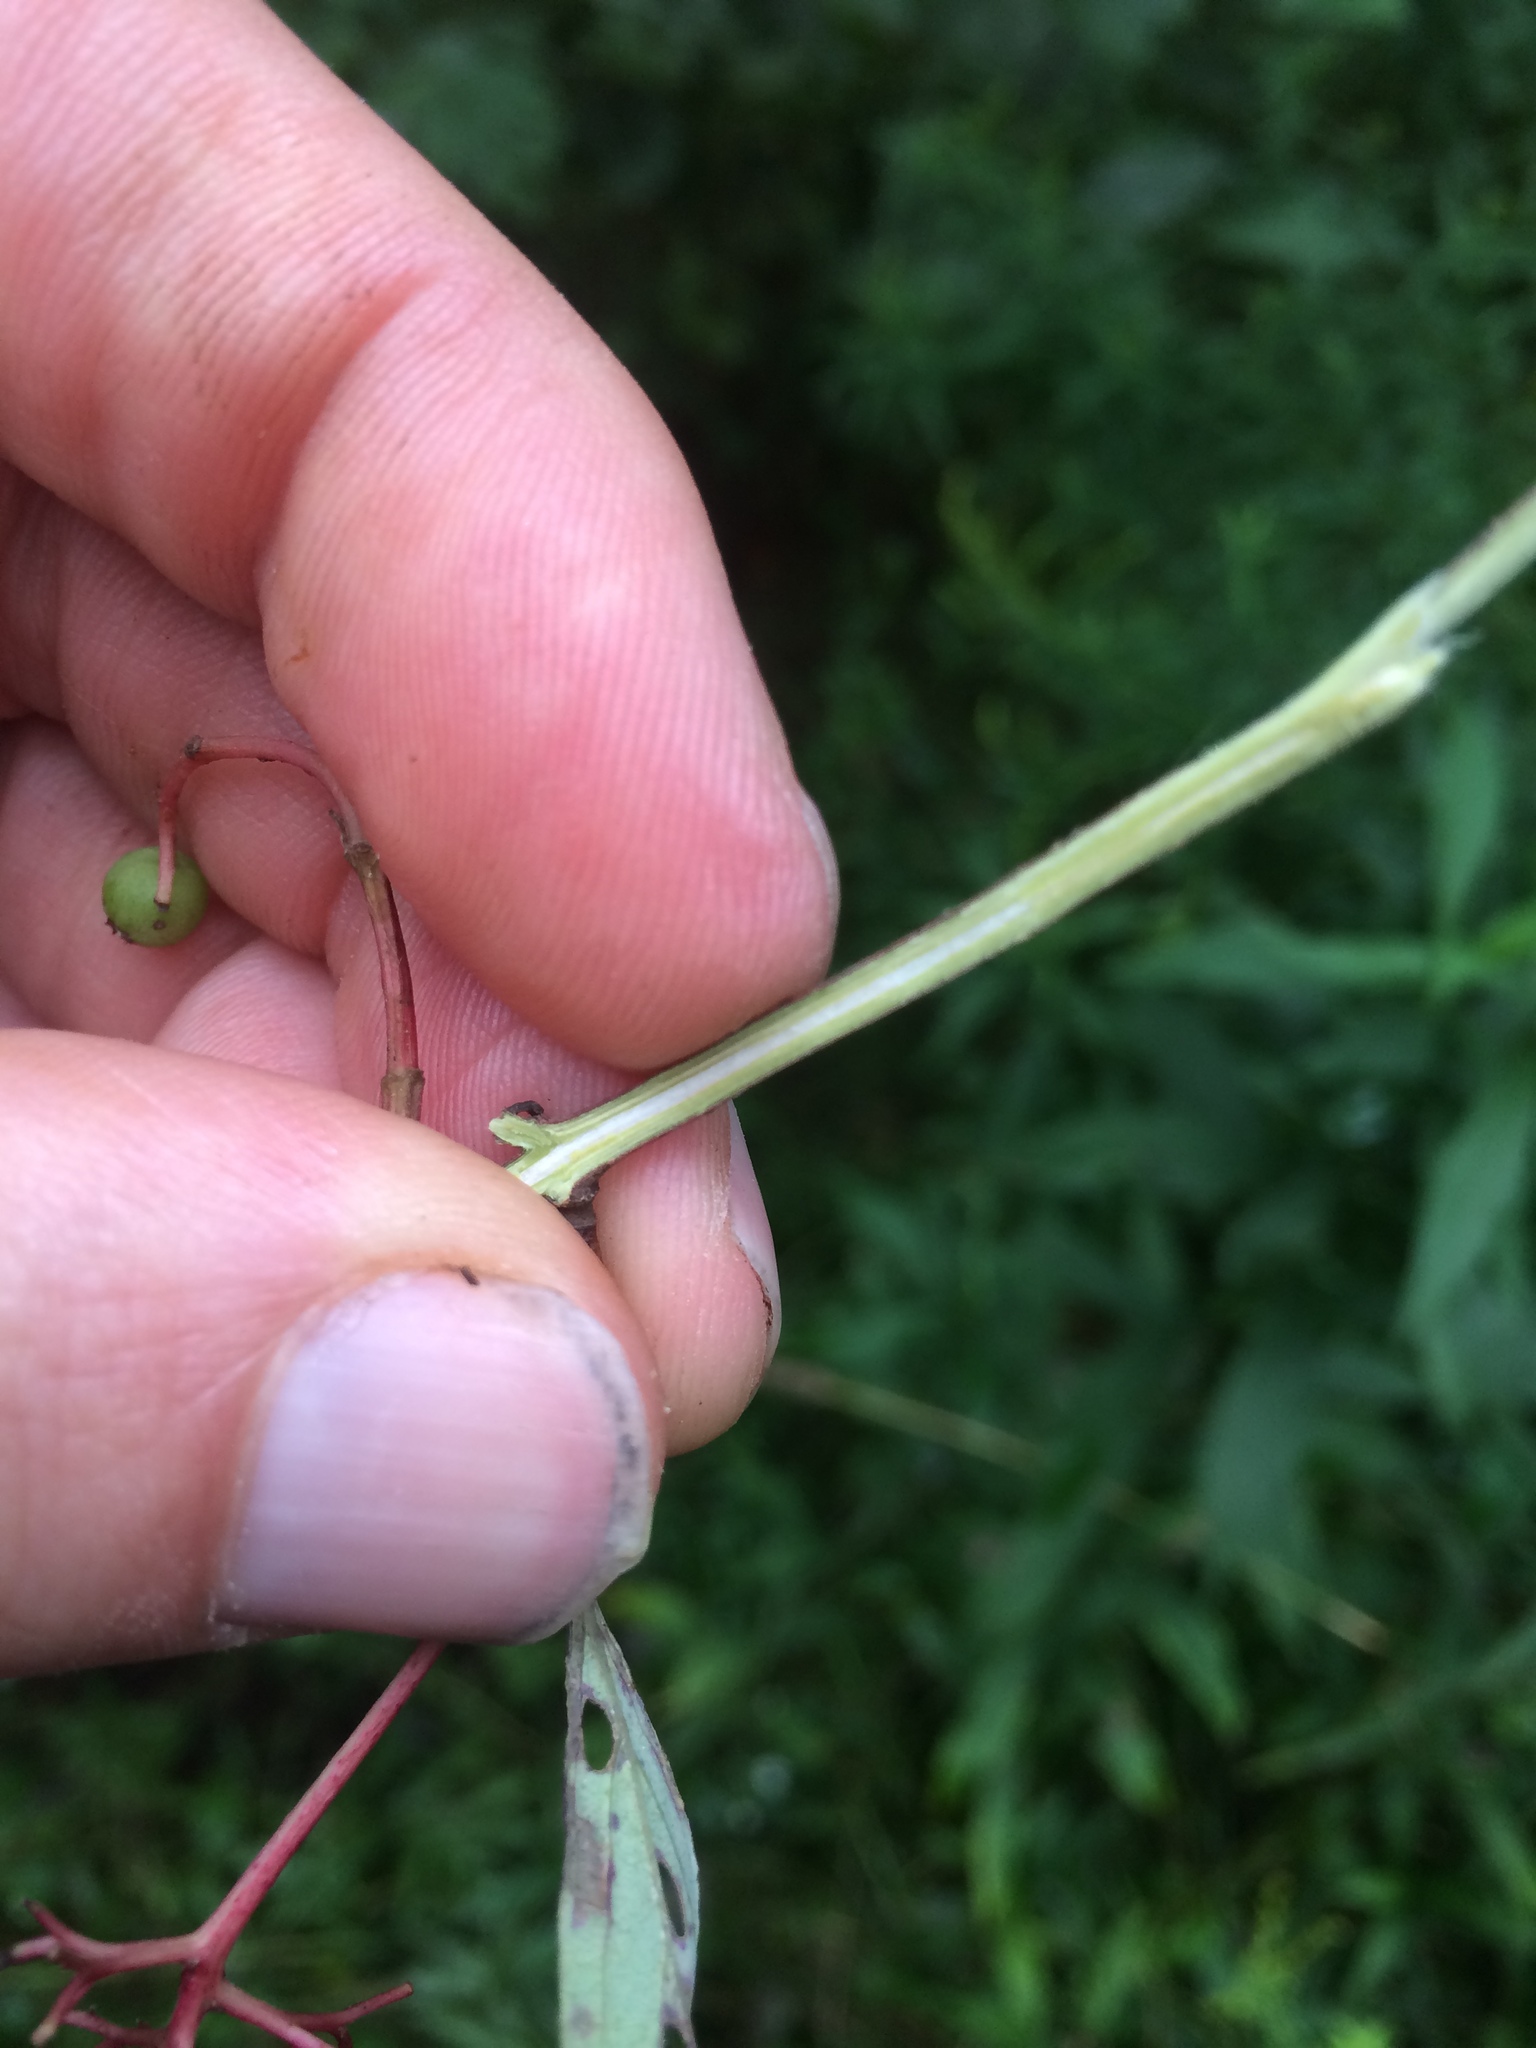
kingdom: Plantae
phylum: Tracheophyta
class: Magnoliopsida
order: Cornales
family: Cornaceae
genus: Cornus
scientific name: Cornus sericea
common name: Red-osier dogwood
